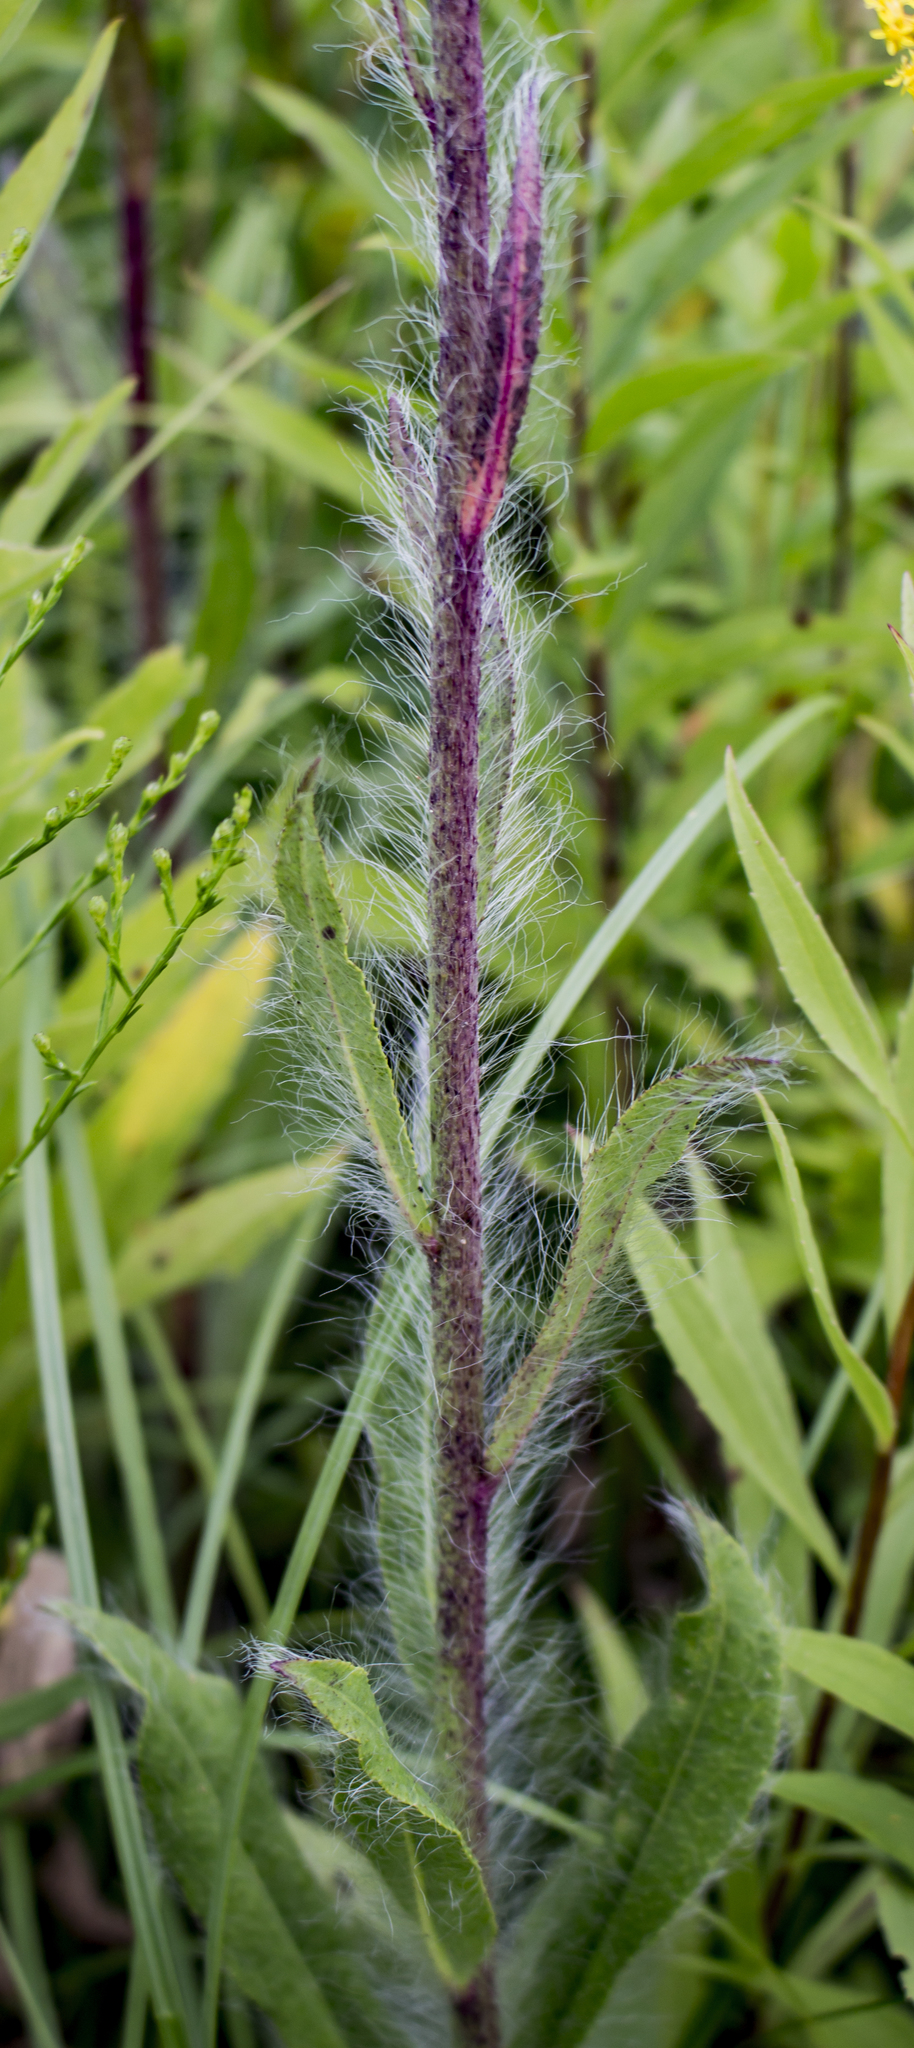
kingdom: Plantae
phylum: Tracheophyta
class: Magnoliopsida
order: Asterales
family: Asteraceae
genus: Hieracium
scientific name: Hieracium longipilum
